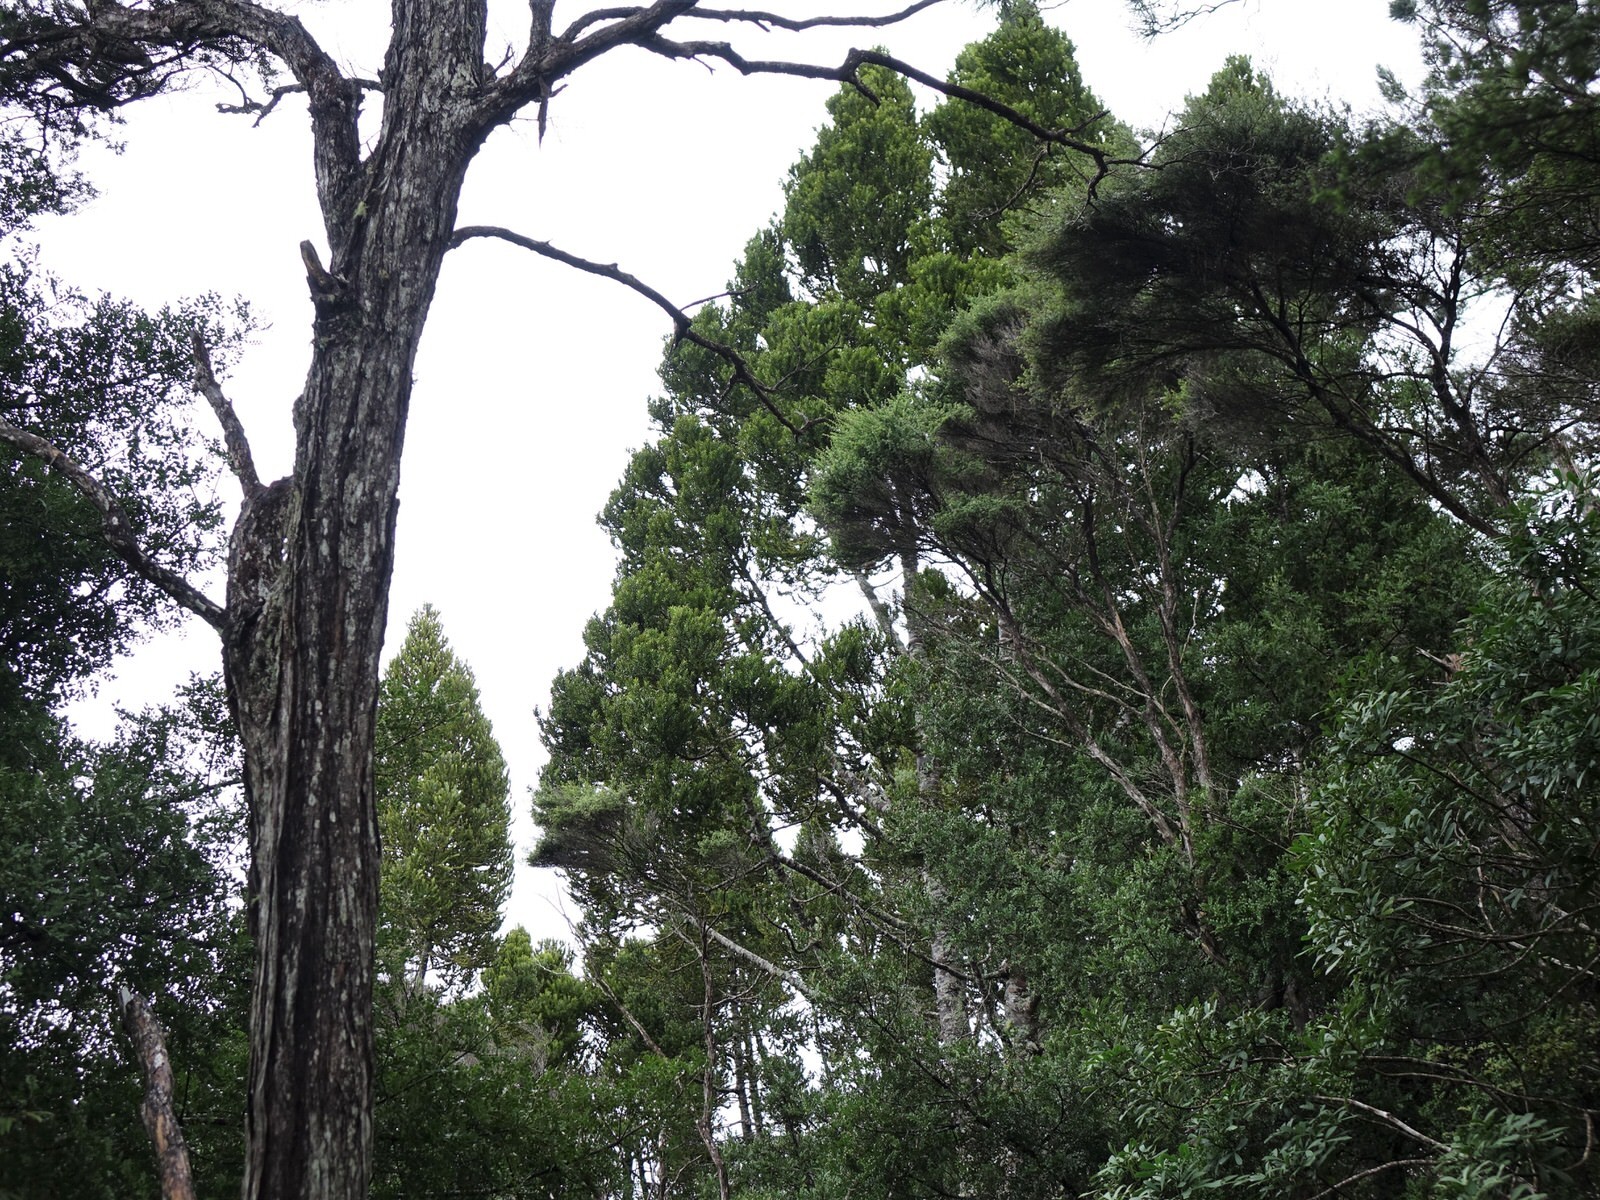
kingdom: Plantae
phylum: Tracheophyta
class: Pinopsida
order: Pinales
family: Araucariaceae
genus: Agathis
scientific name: Agathis australis
